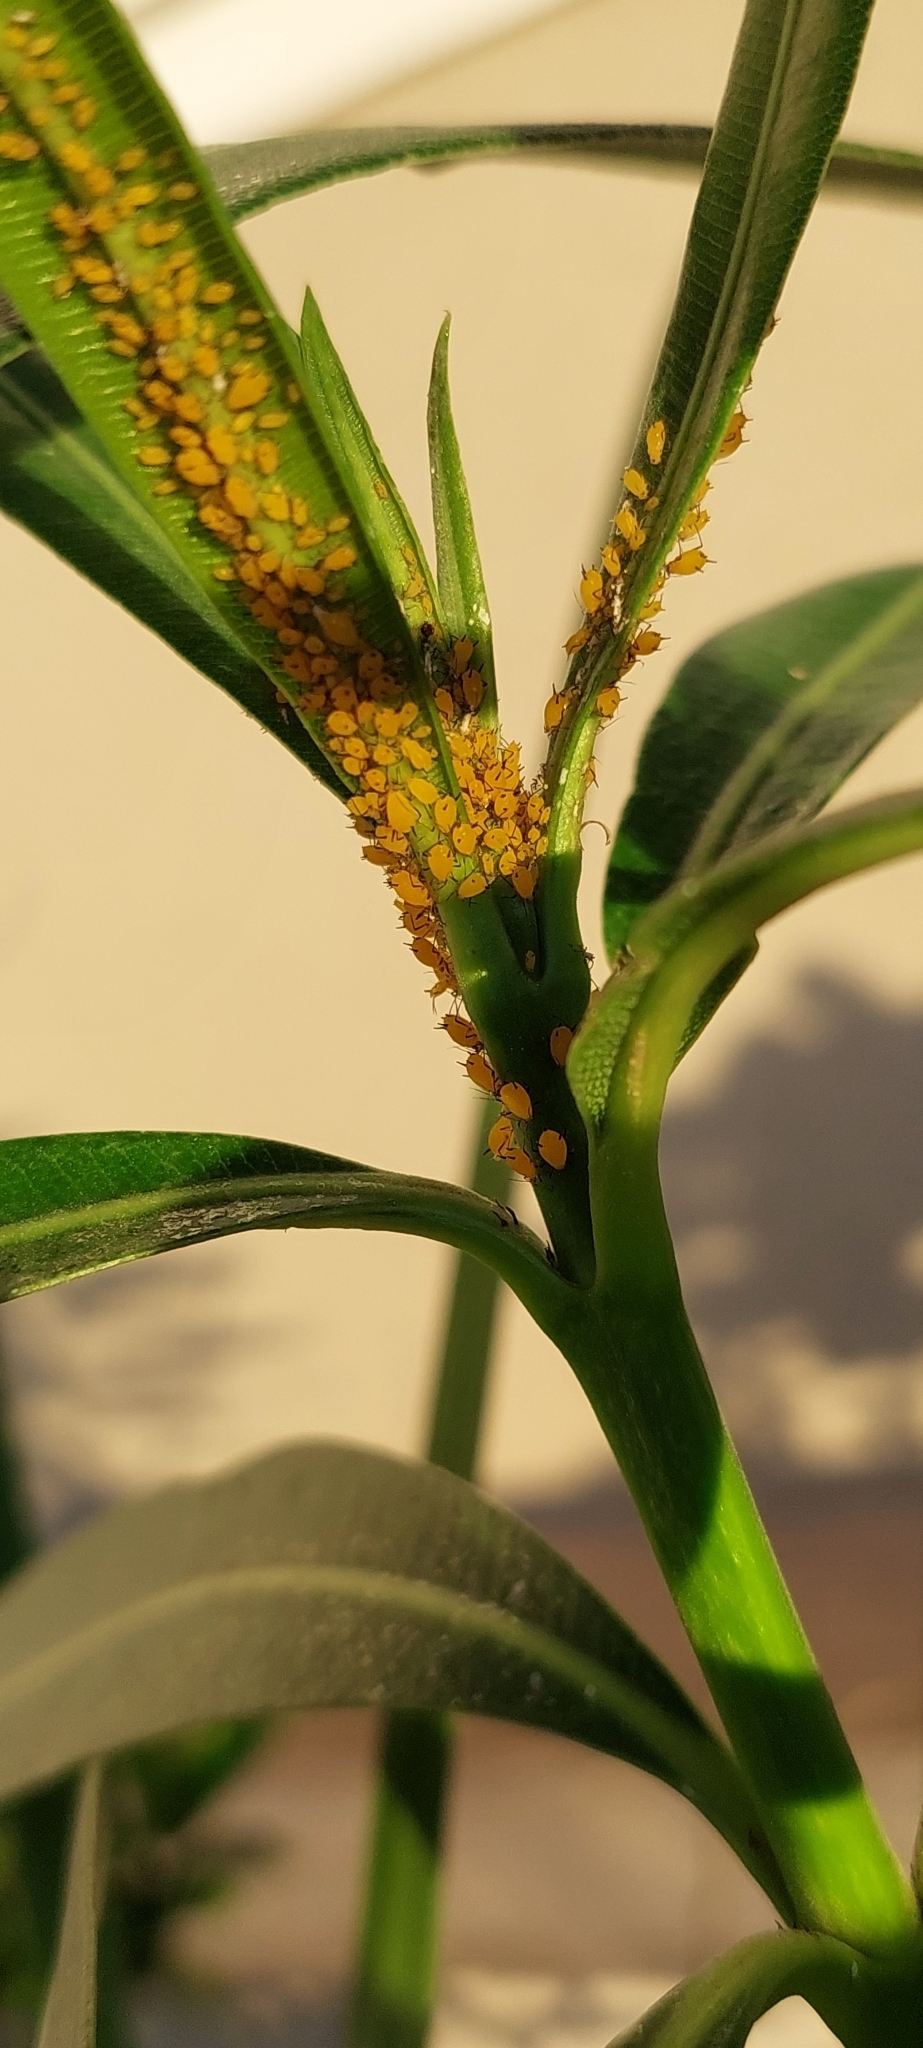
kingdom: Animalia
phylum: Arthropoda
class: Insecta
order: Hemiptera
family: Aphididae
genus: Aphis
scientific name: Aphis nerii
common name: Oleander aphid
